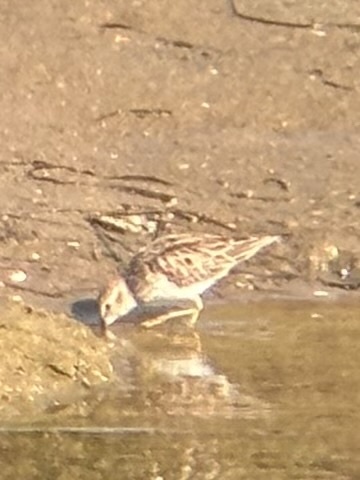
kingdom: Animalia
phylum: Chordata
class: Aves
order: Charadriiformes
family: Scolopacidae
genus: Calidris
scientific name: Calidris minutilla
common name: Least sandpiper
